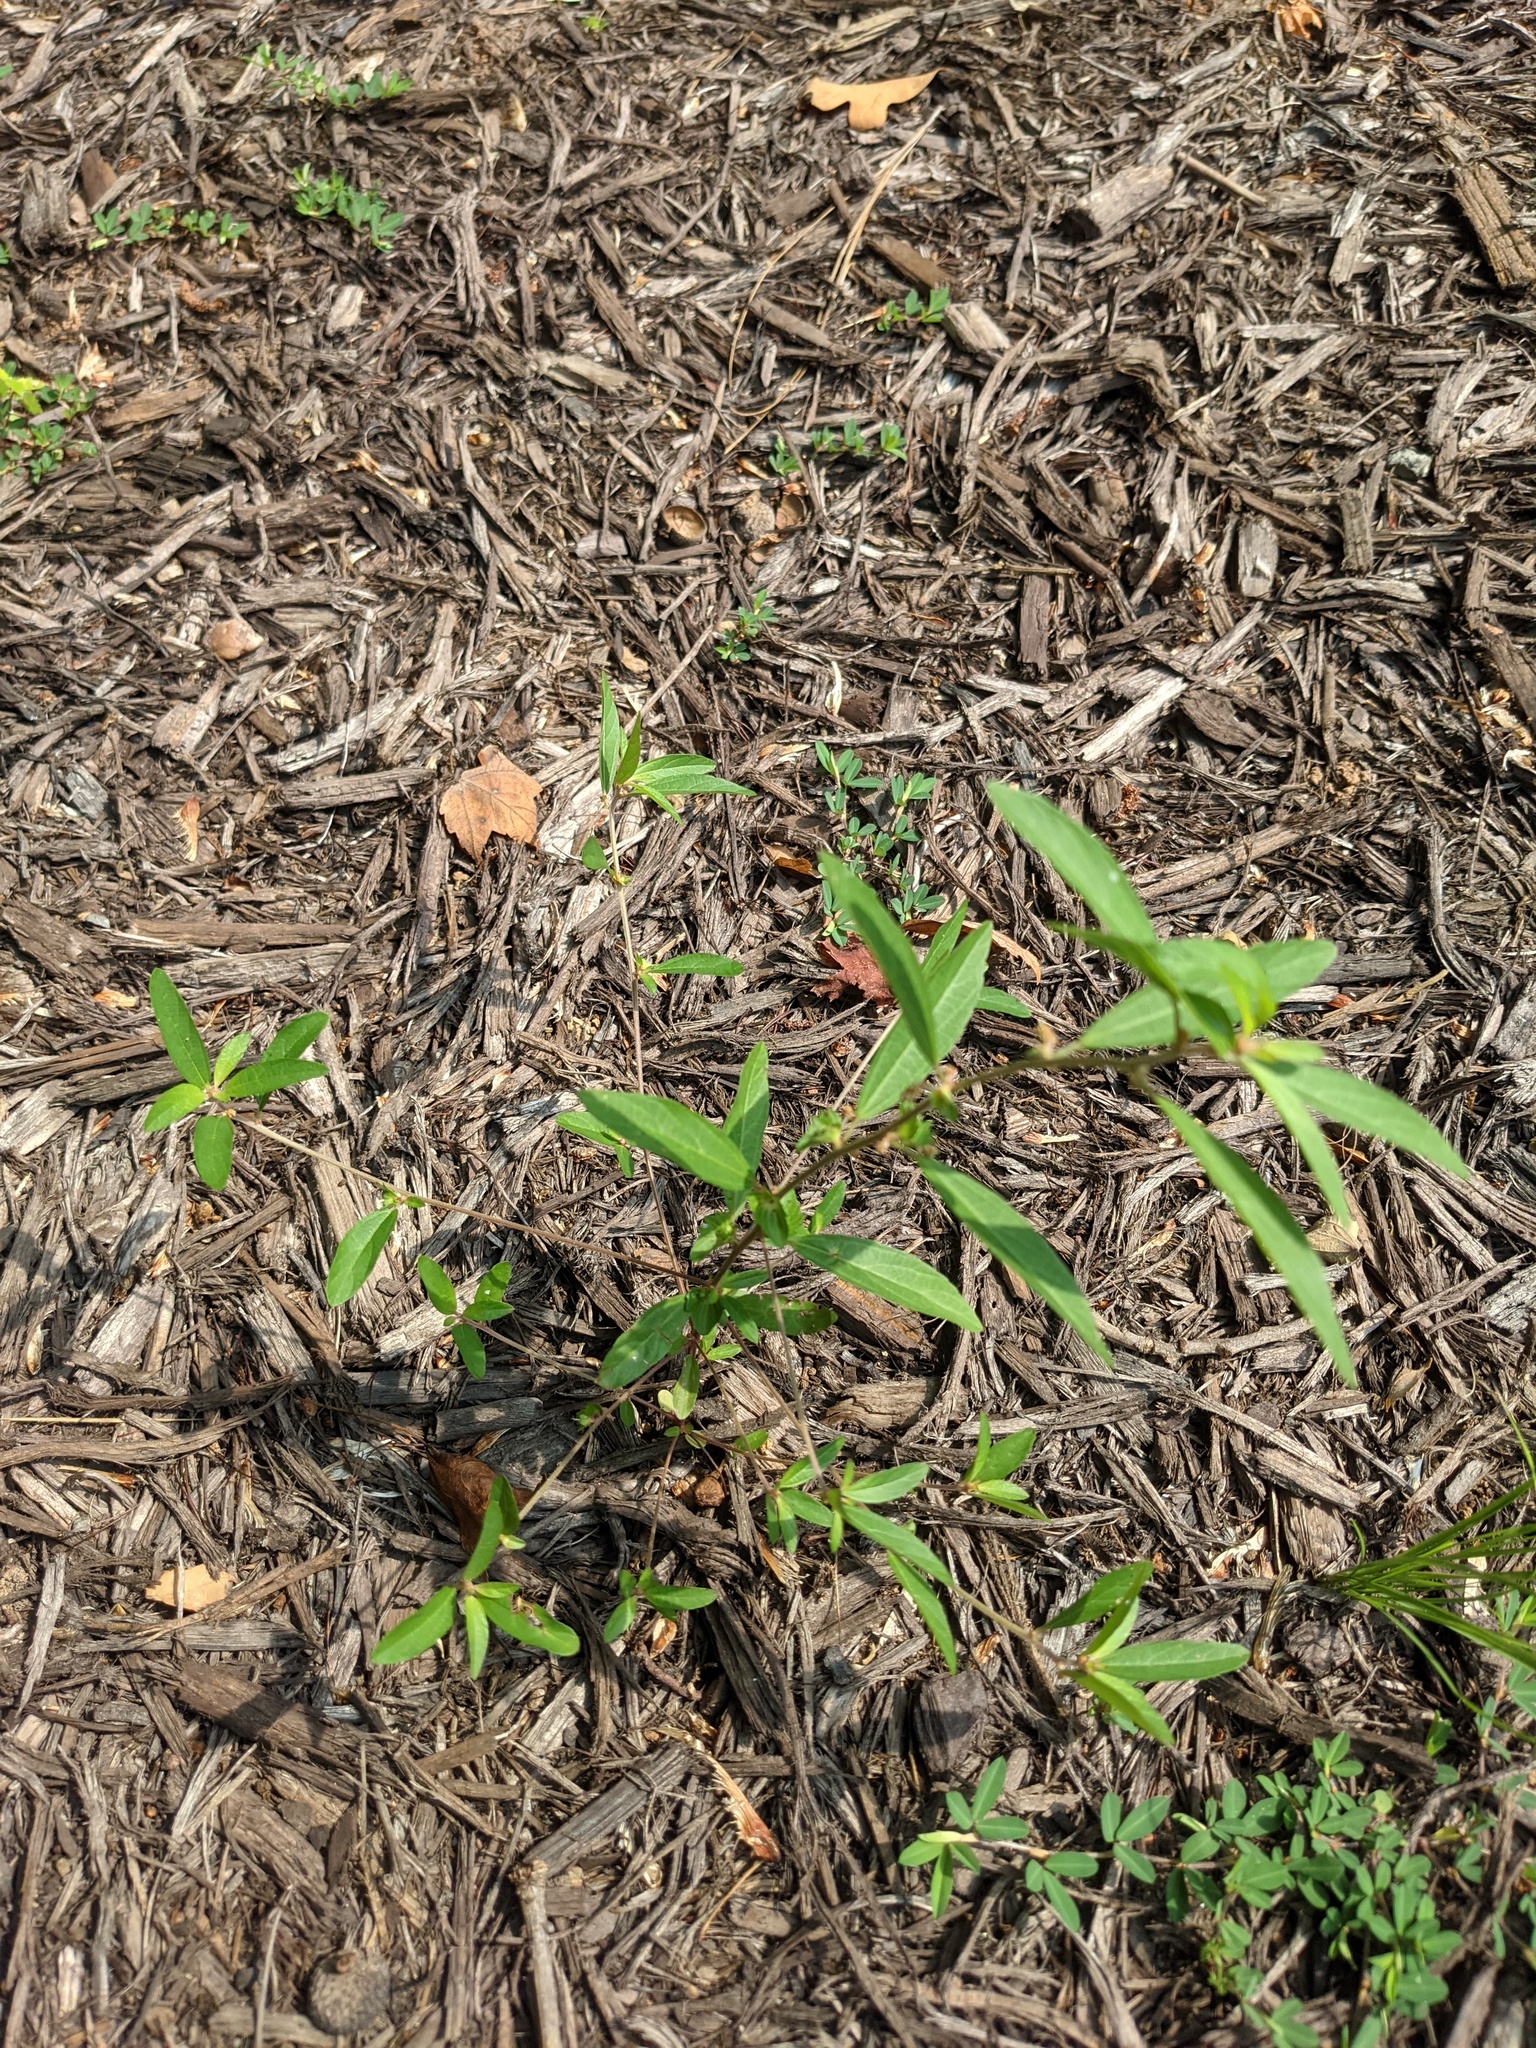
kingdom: Plantae
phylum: Tracheophyta
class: Magnoliopsida
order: Malpighiales
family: Euphorbiaceae
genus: Acalypha
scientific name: Acalypha gracilens
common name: Slender three-seeded mercury
